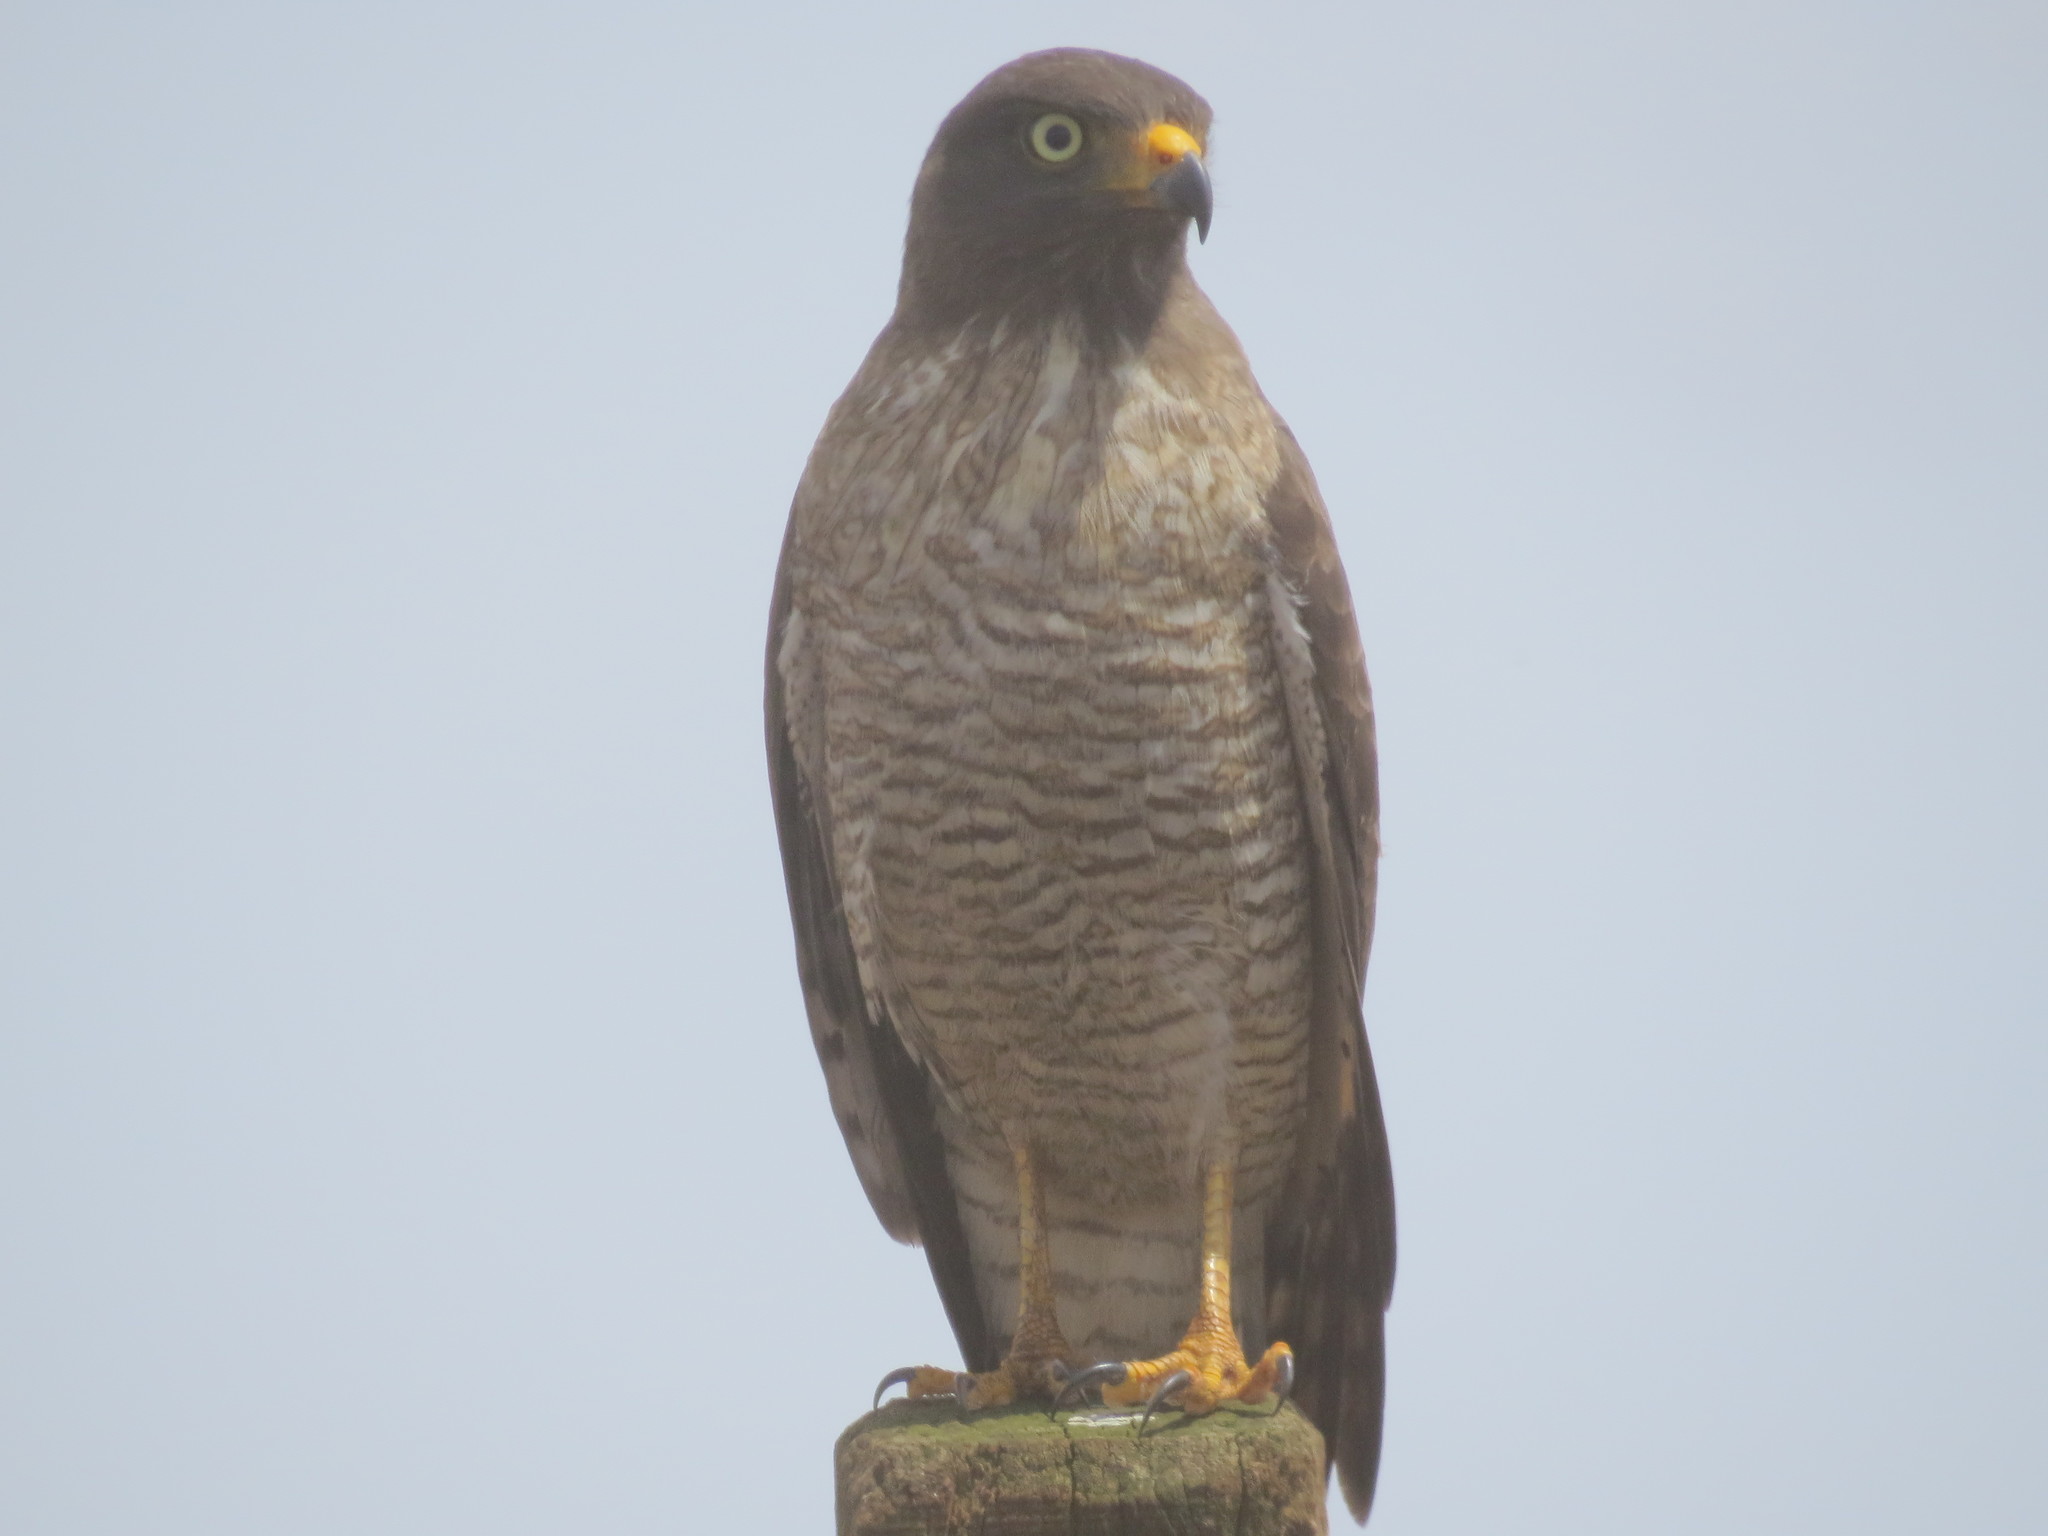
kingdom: Animalia
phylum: Chordata
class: Aves
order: Accipitriformes
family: Accipitridae
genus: Rupornis
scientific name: Rupornis magnirostris
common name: Roadside hawk
